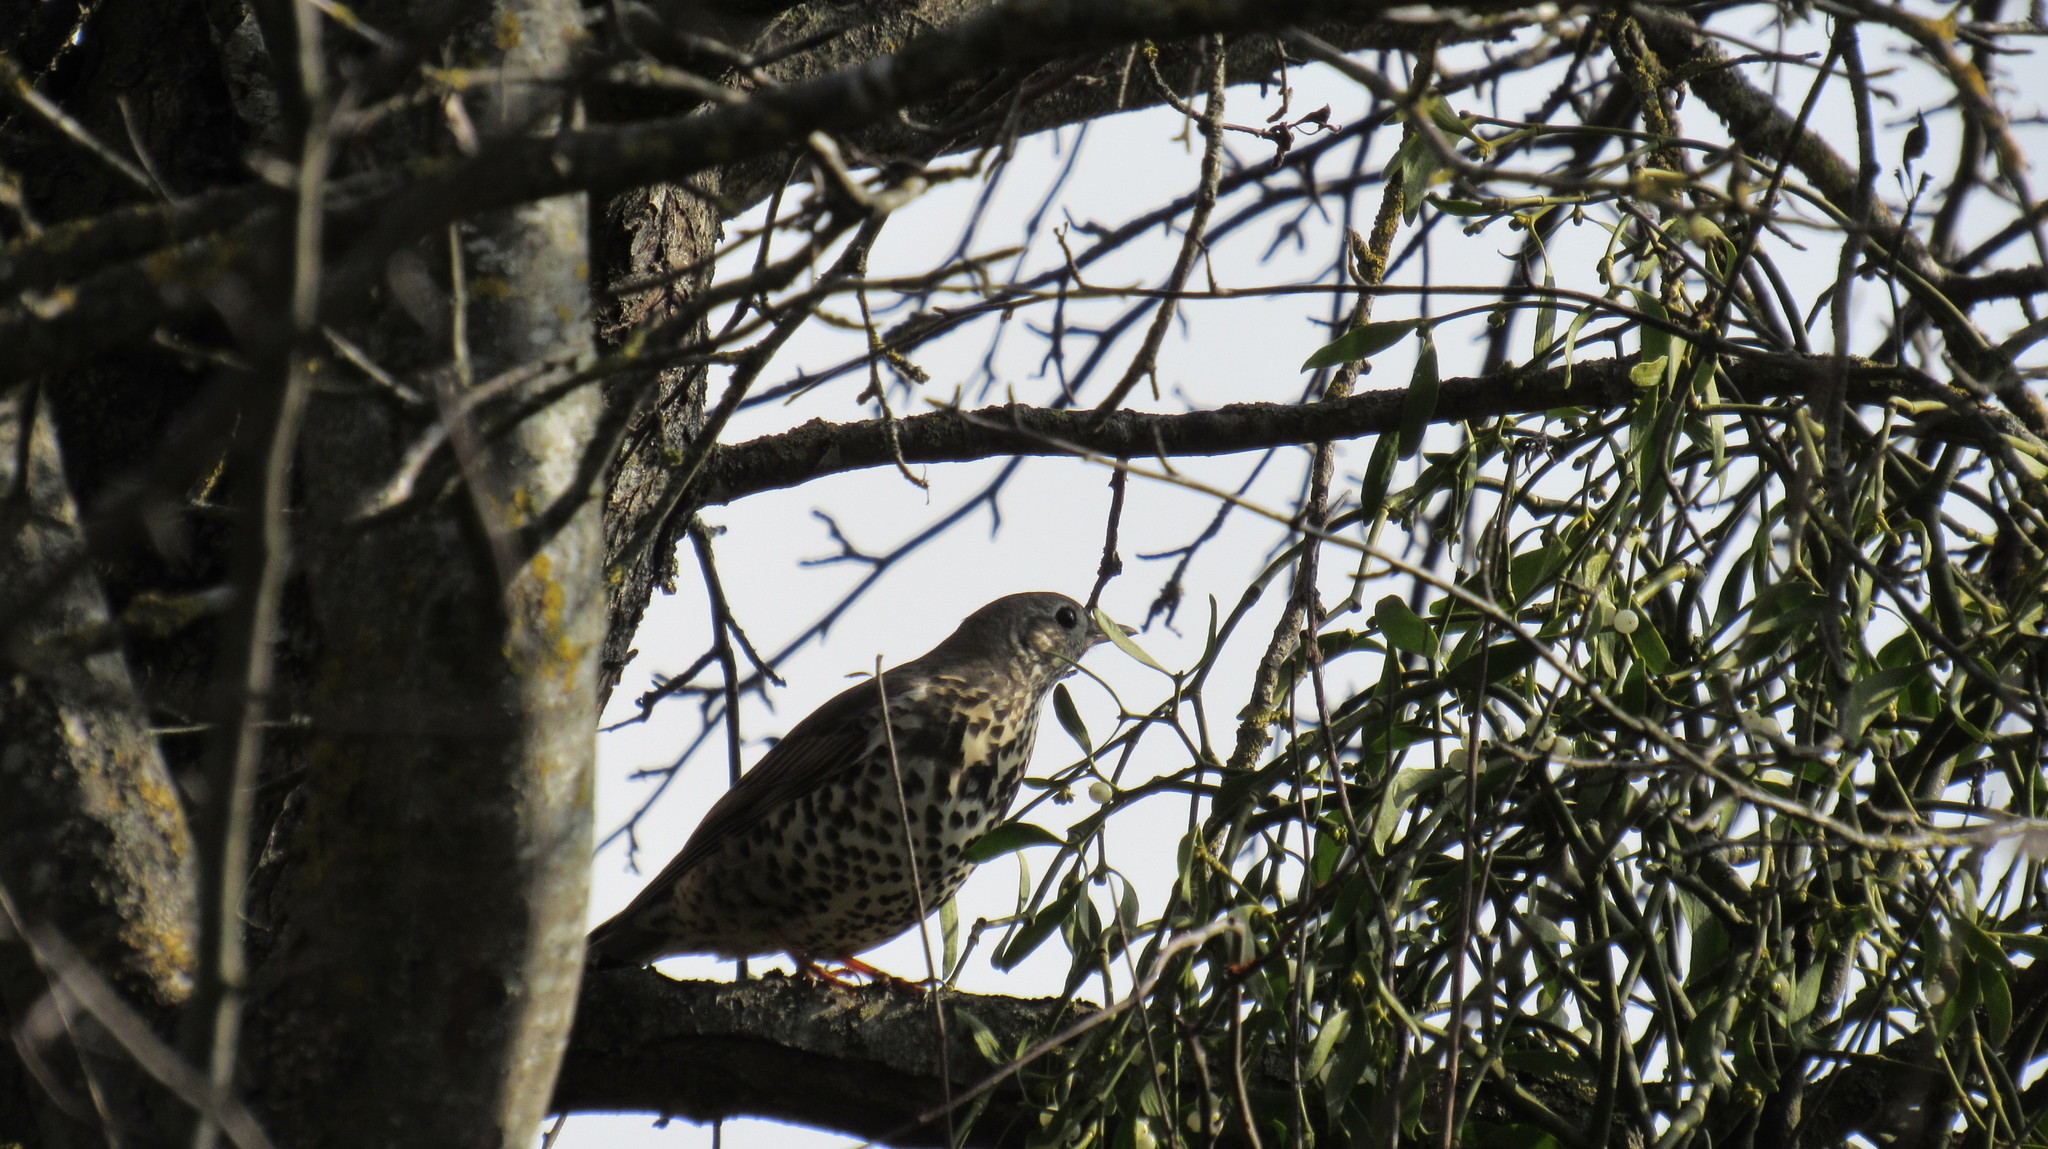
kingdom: Animalia
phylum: Chordata
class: Aves
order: Passeriformes
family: Turdidae
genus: Turdus
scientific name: Turdus viscivorus
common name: Mistle thrush
